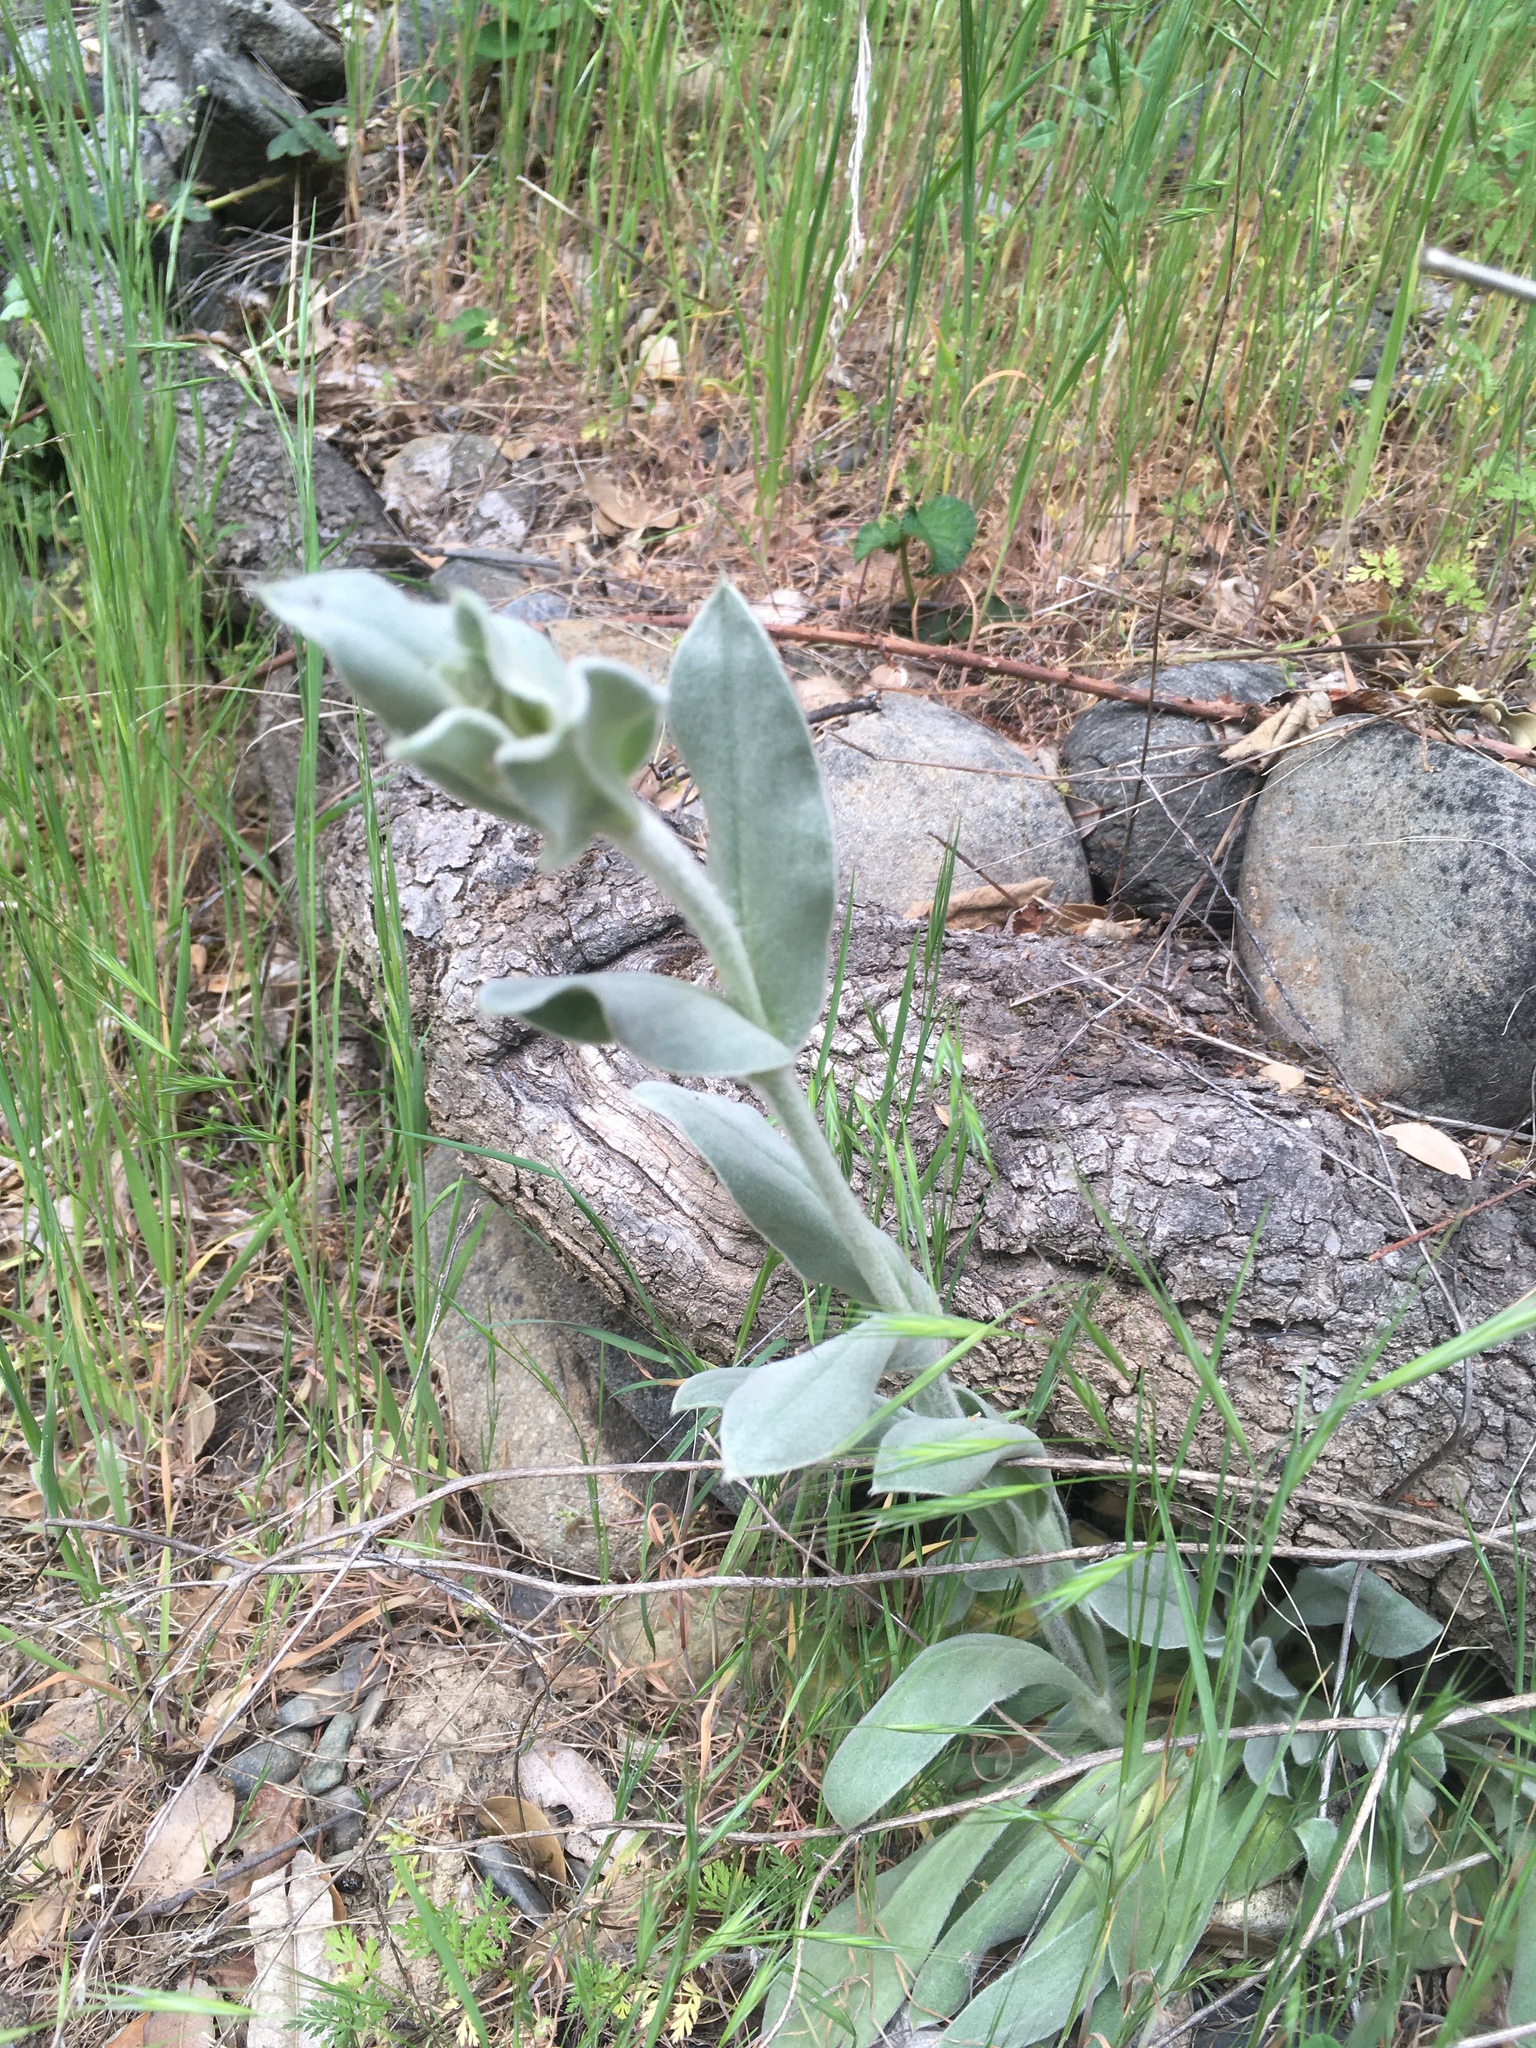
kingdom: Plantae
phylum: Tracheophyta
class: Magnoliopsida
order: Caryophyllales
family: Caryophyllaceae
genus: Silene
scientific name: Silene coronaria
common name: Rose campion
